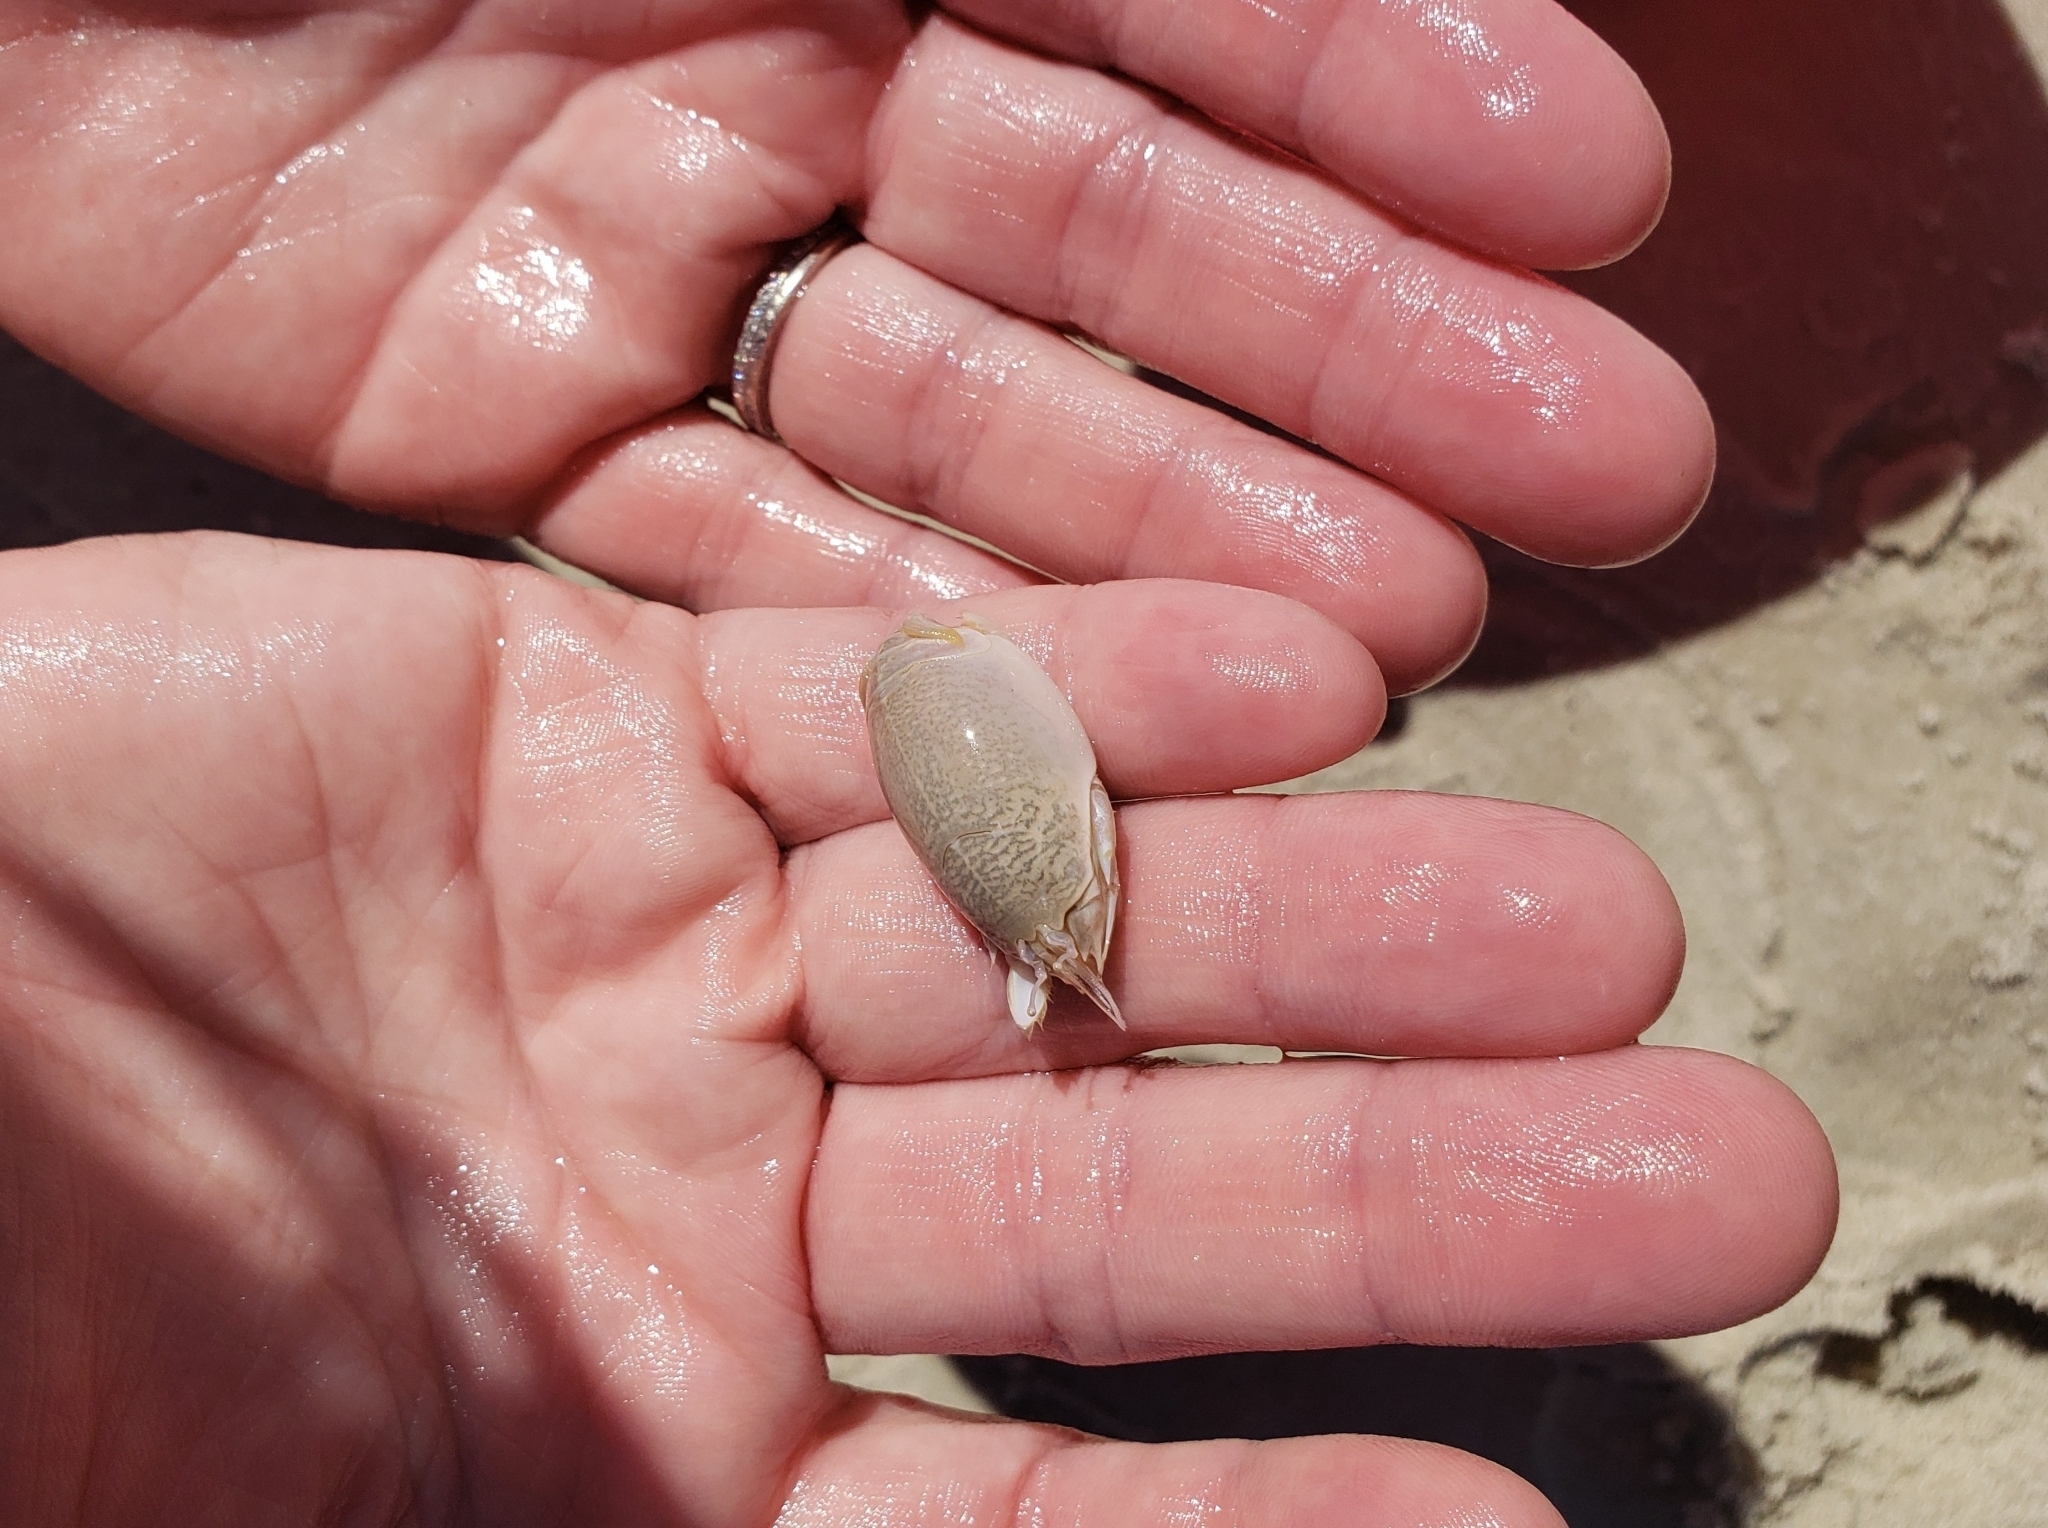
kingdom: Animalia
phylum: Arthropoda
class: Malacostraca
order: Decapoda
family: Hippidae
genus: Emerita
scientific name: Emerita talpoida
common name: Atlantic sand crab
